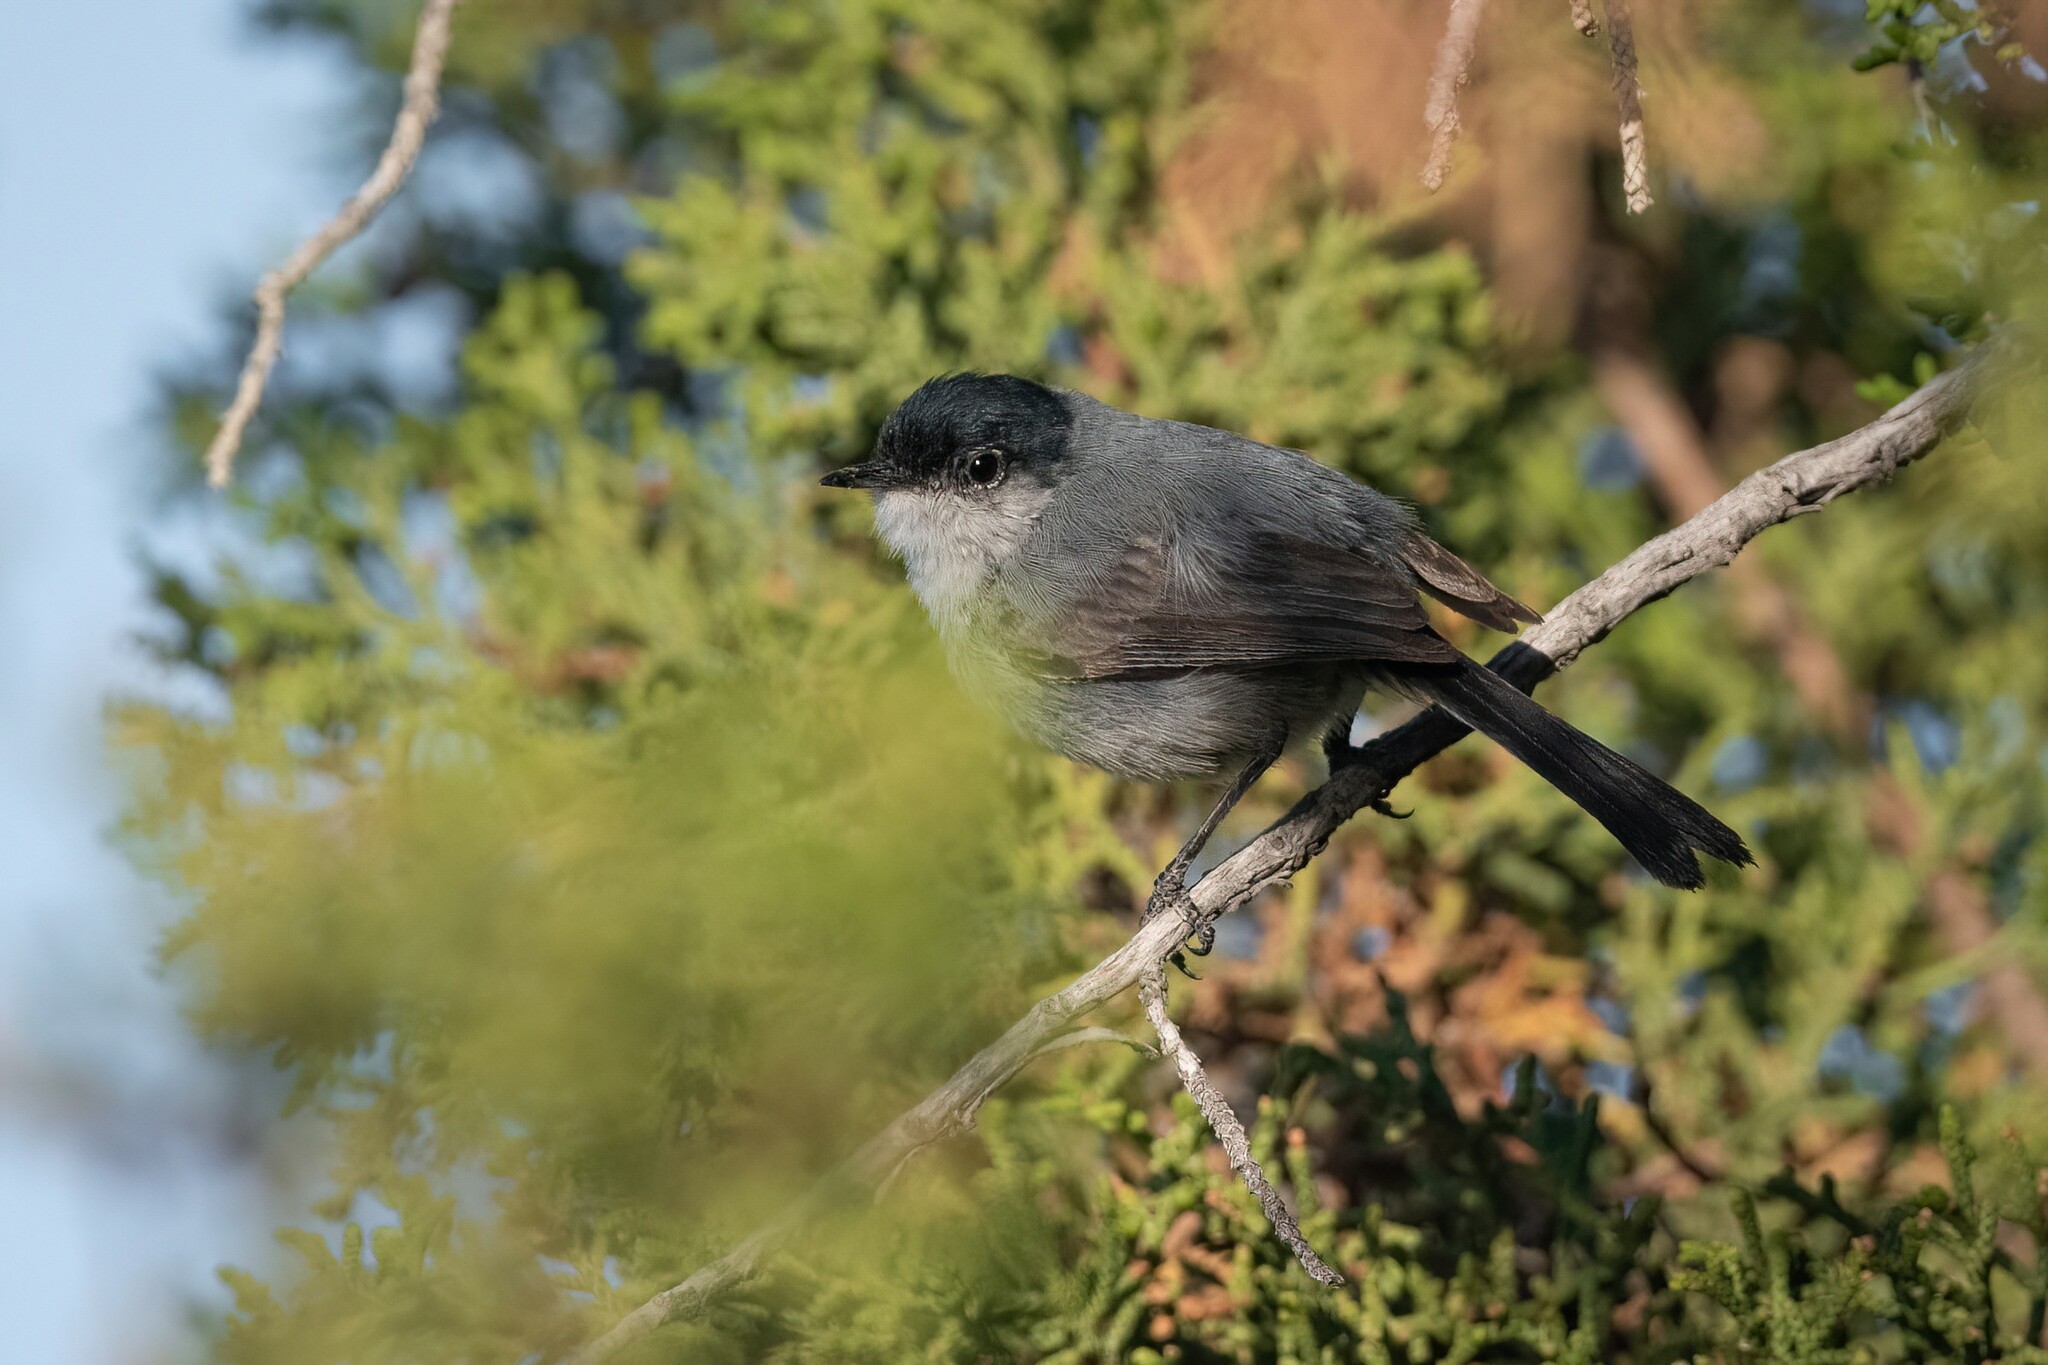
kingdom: Animalia
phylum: Chordata
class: Aves
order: Passeriformes
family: Polioptilidae
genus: Polioptila
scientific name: Polioptila californica
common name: California gnatcatcher
